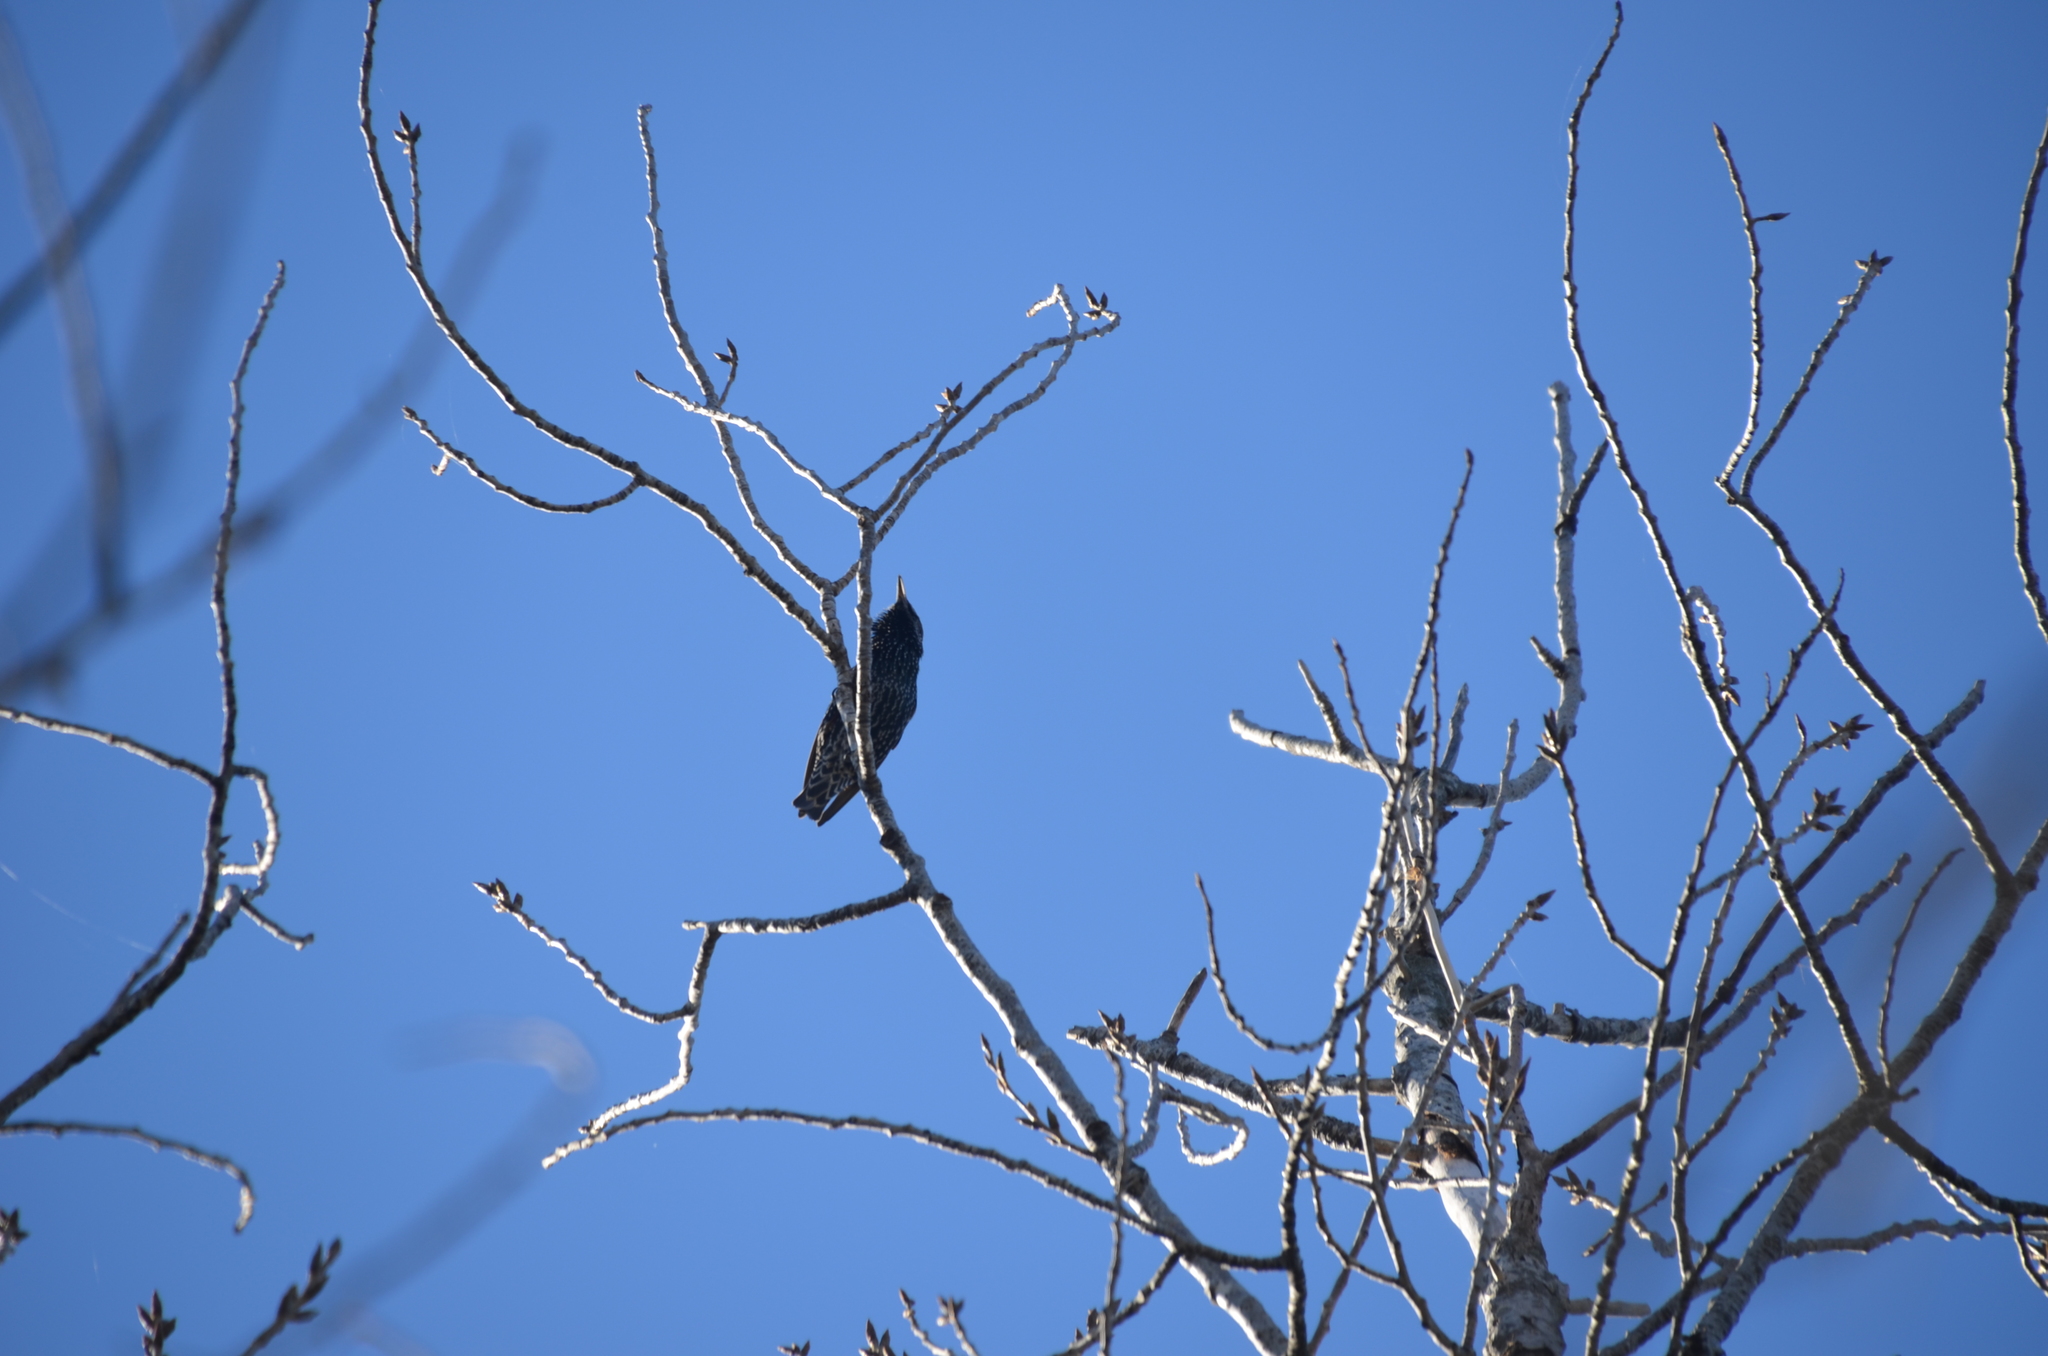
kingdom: Animalia
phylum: Chordata
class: Aves
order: Passeriformes
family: Sturnidae
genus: Sturnus
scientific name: Sturnus vulgaris
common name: Common starling
